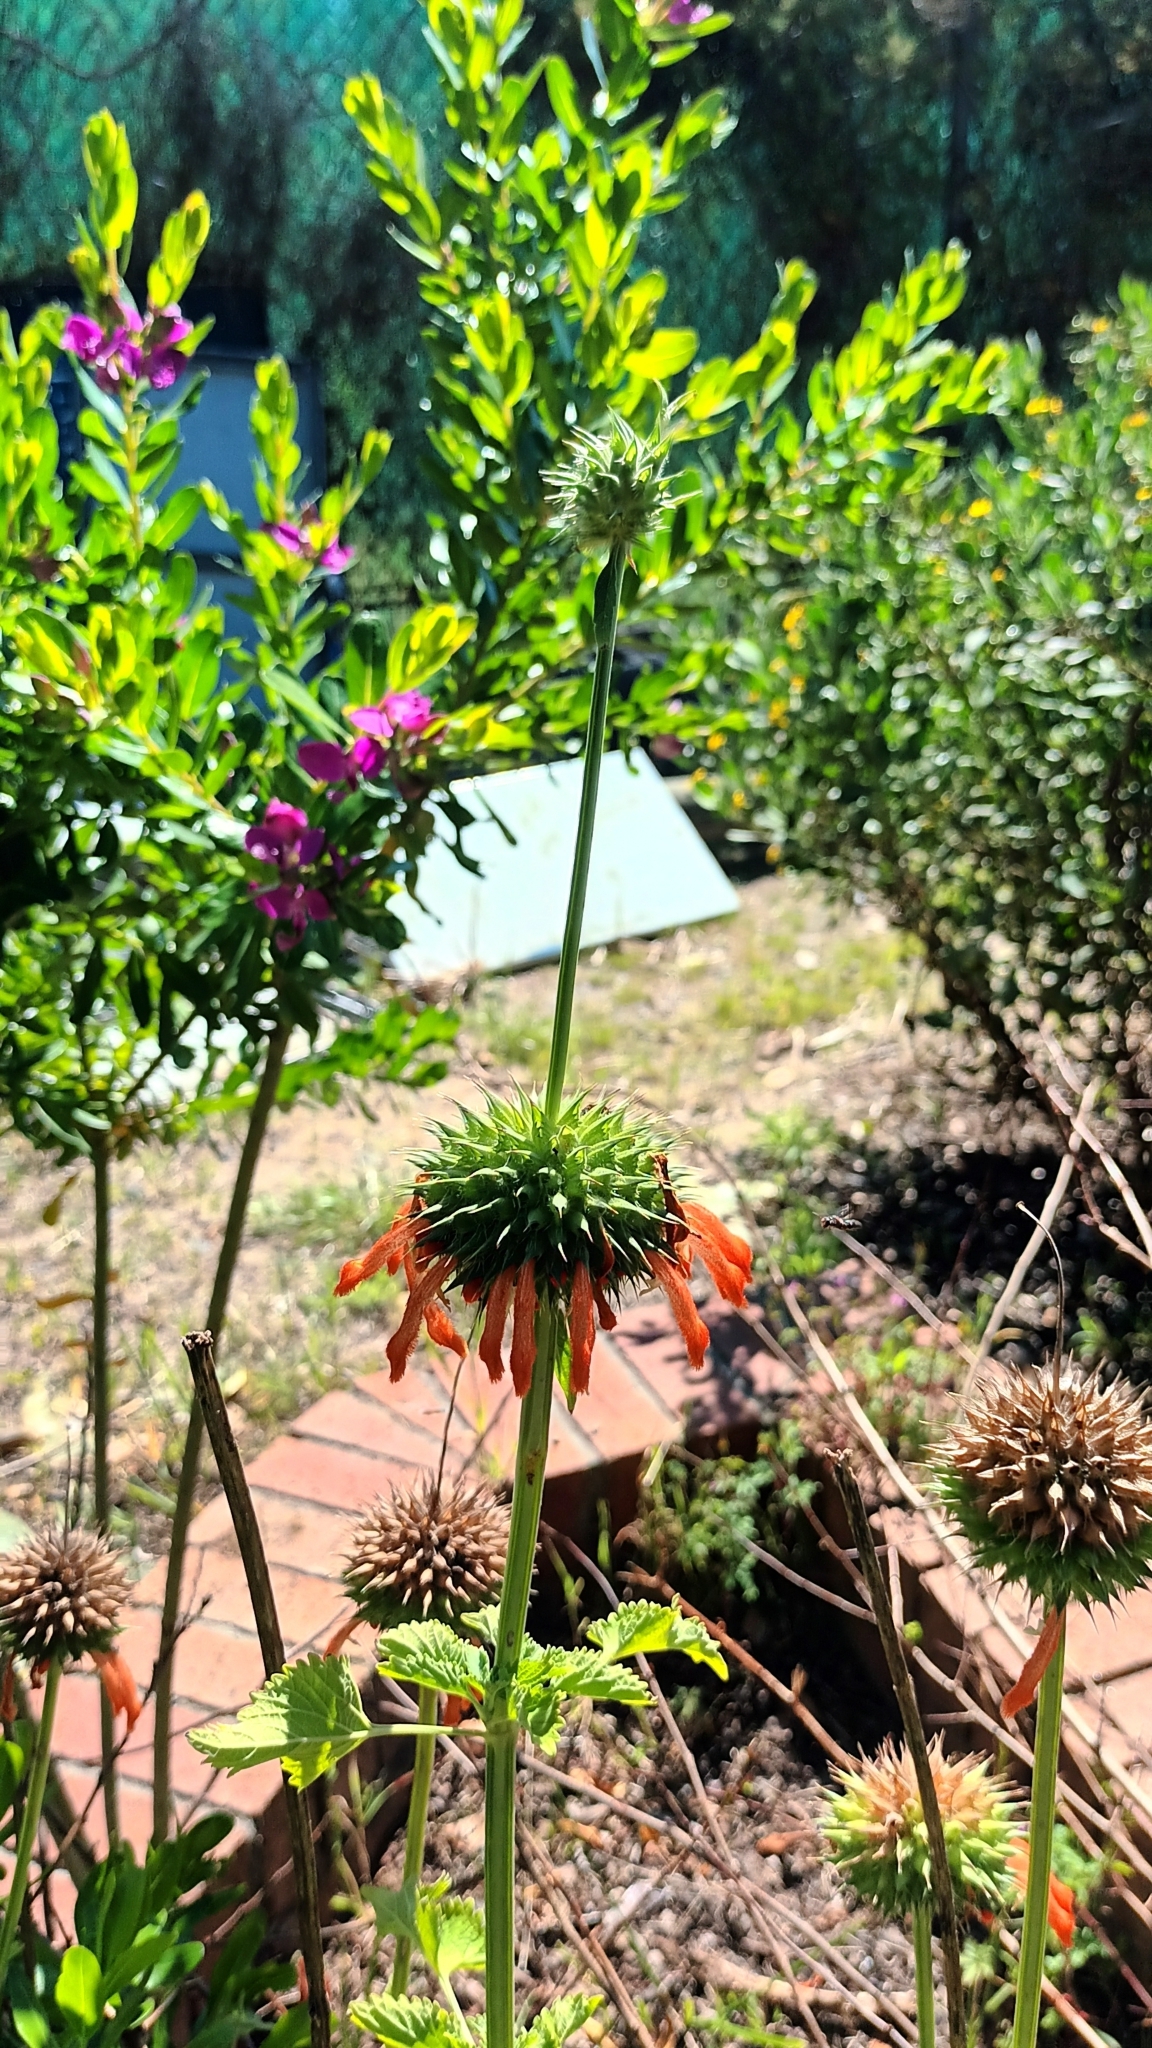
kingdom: Plantae
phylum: Tracheophyta
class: Magnoliopsida
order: Lamiales
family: Lamiaceae
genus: Leonotis
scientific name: Leonotis
